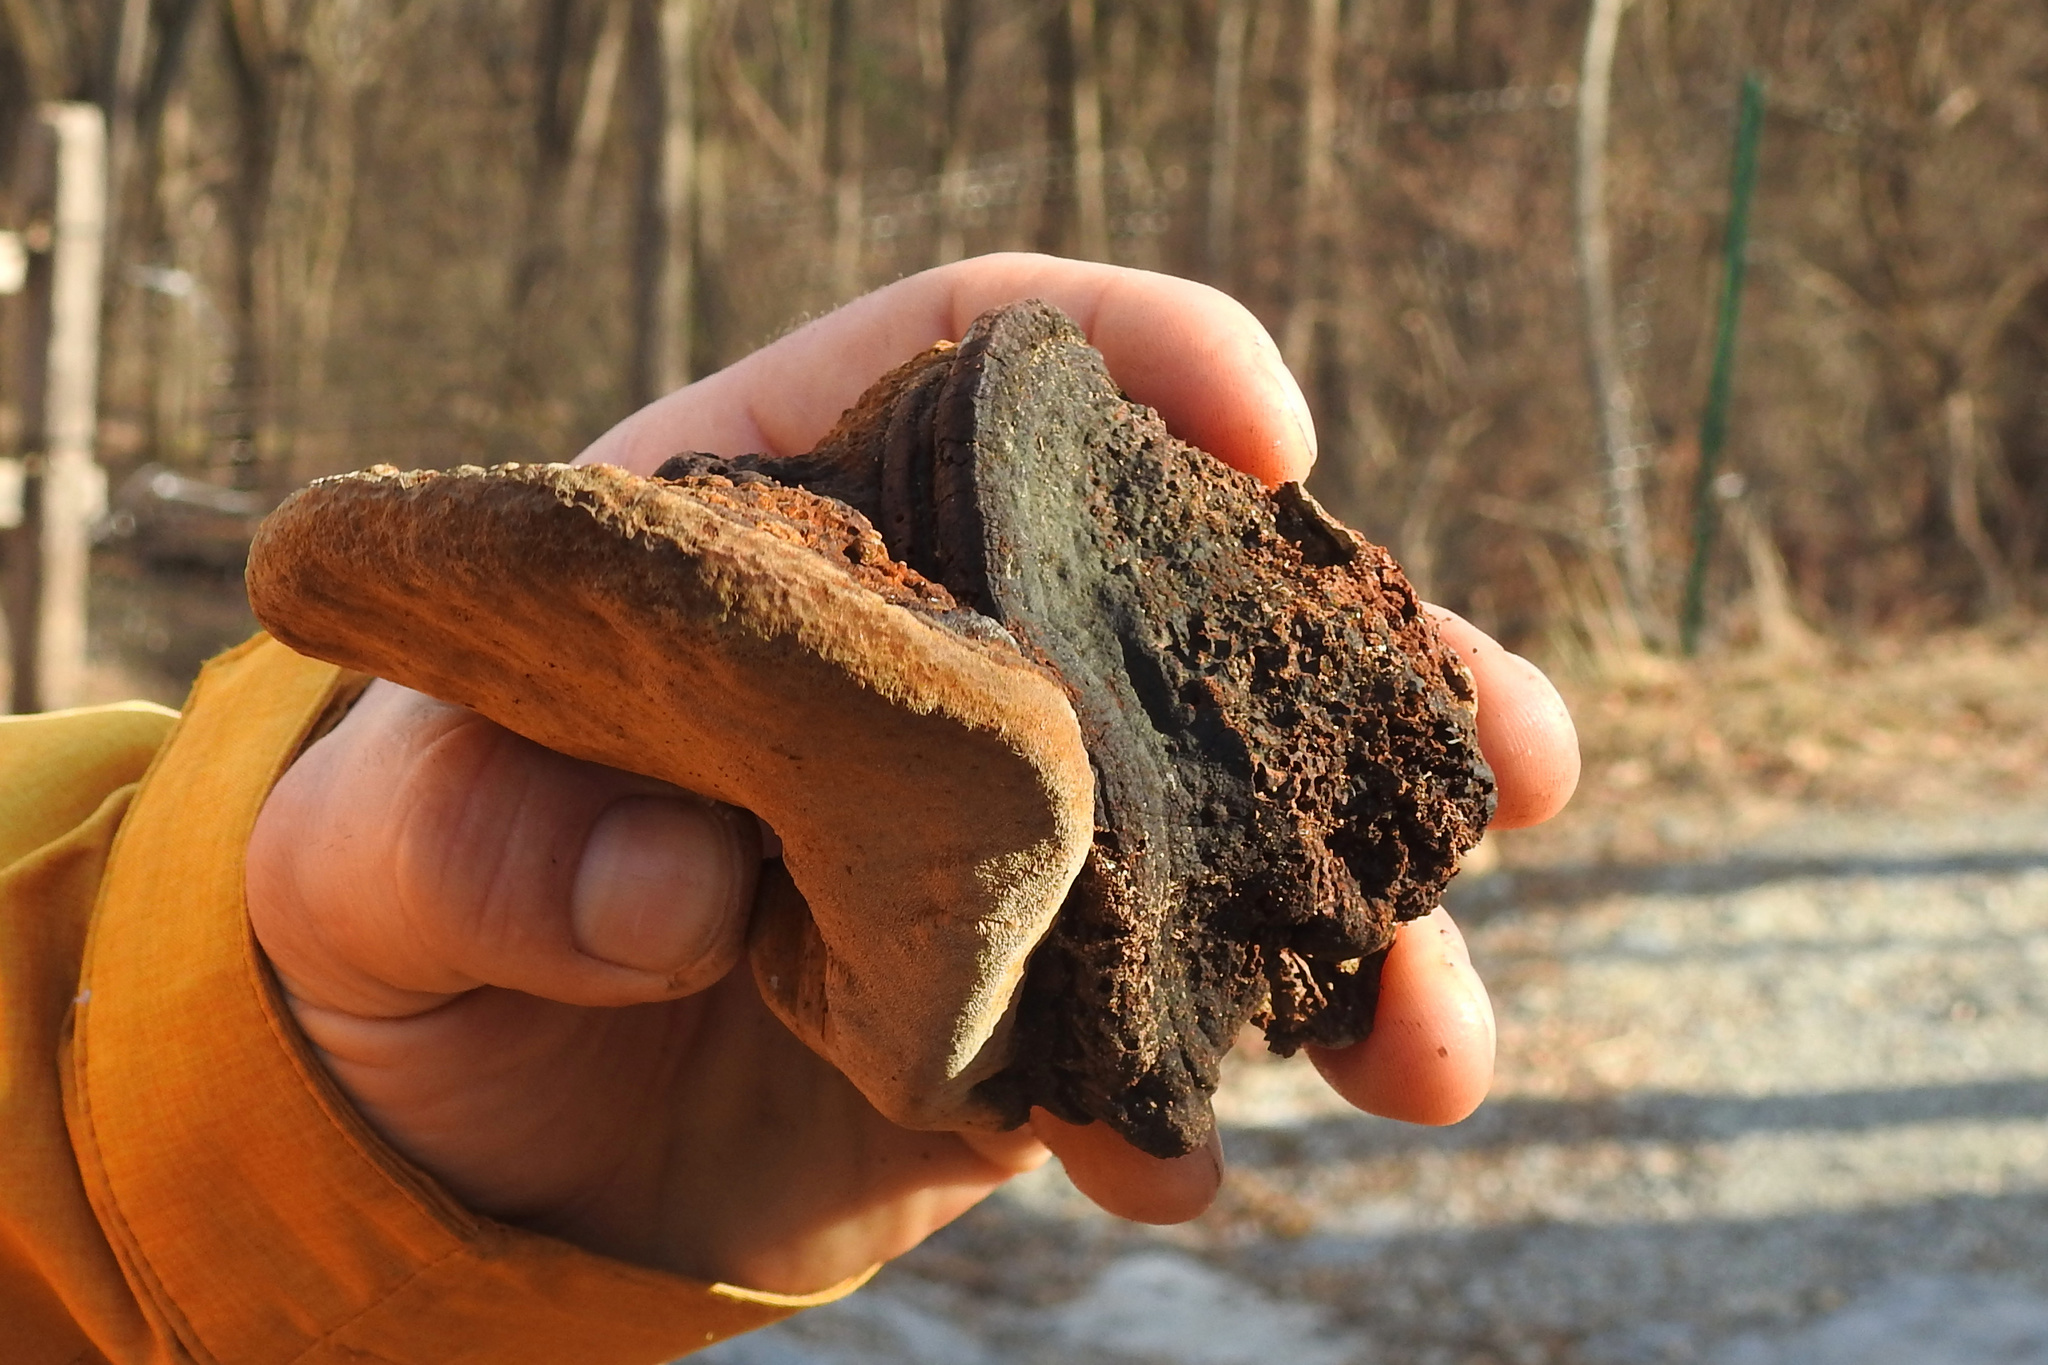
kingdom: Fungi
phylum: Basidiomycota
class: Agaricomycetes
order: Hymenochaetales
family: Hymenochaetaceae
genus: Phellinus
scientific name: Phellinus robiniae
